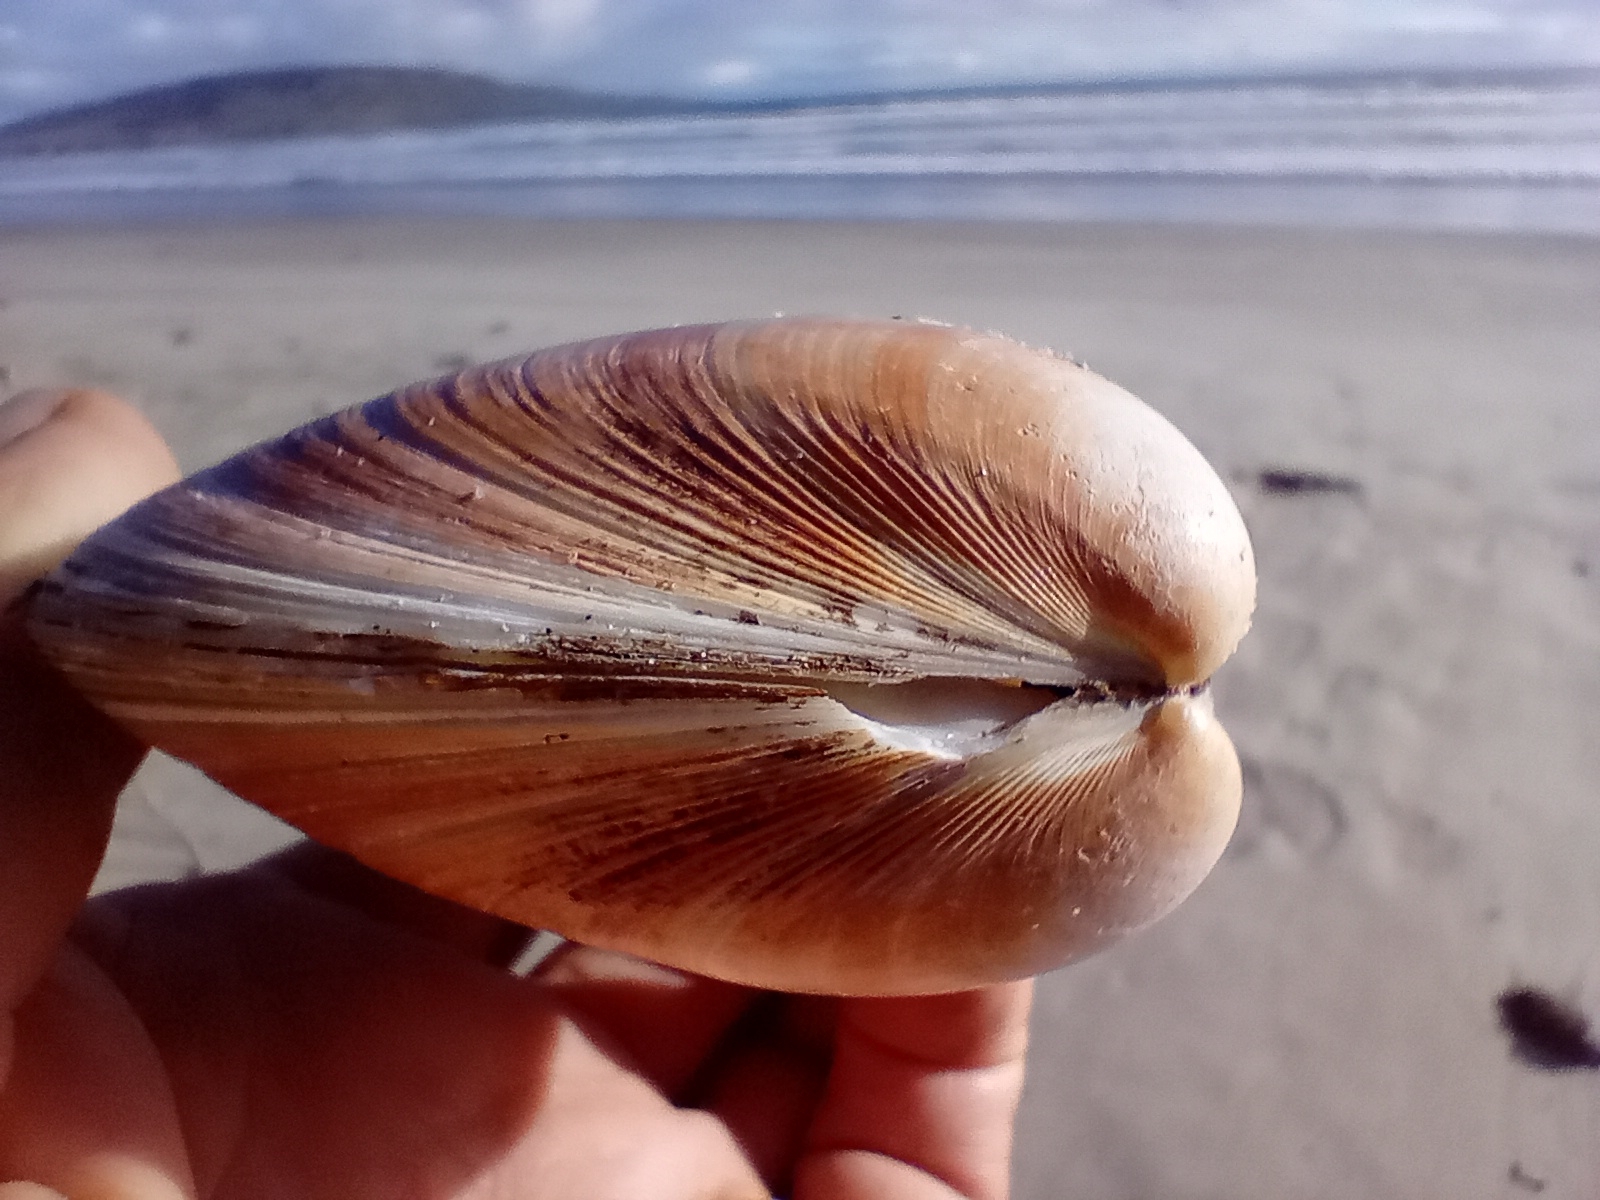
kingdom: Animalia
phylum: Mollusca
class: Bivalvia
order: Venerida
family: Mactridae
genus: Spisula
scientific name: Spisula murchisoni
